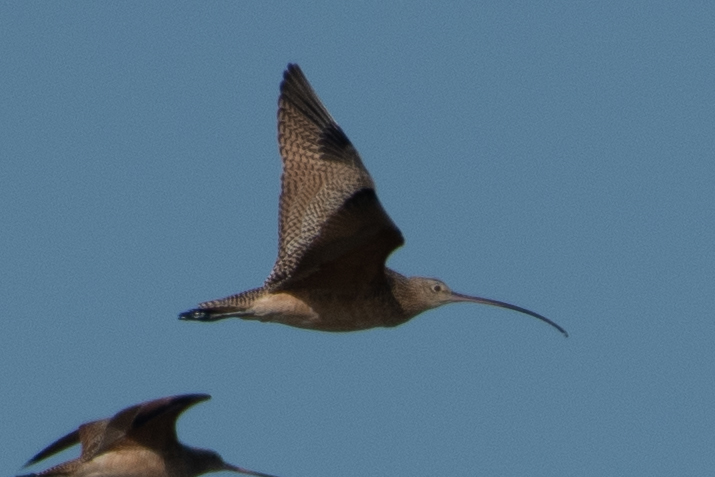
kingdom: Animalia
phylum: Chordata
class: Aves
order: Charadriiformes
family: Scolopacidae
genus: Numenius
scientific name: Numenius americanus
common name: Long-billed curlew
